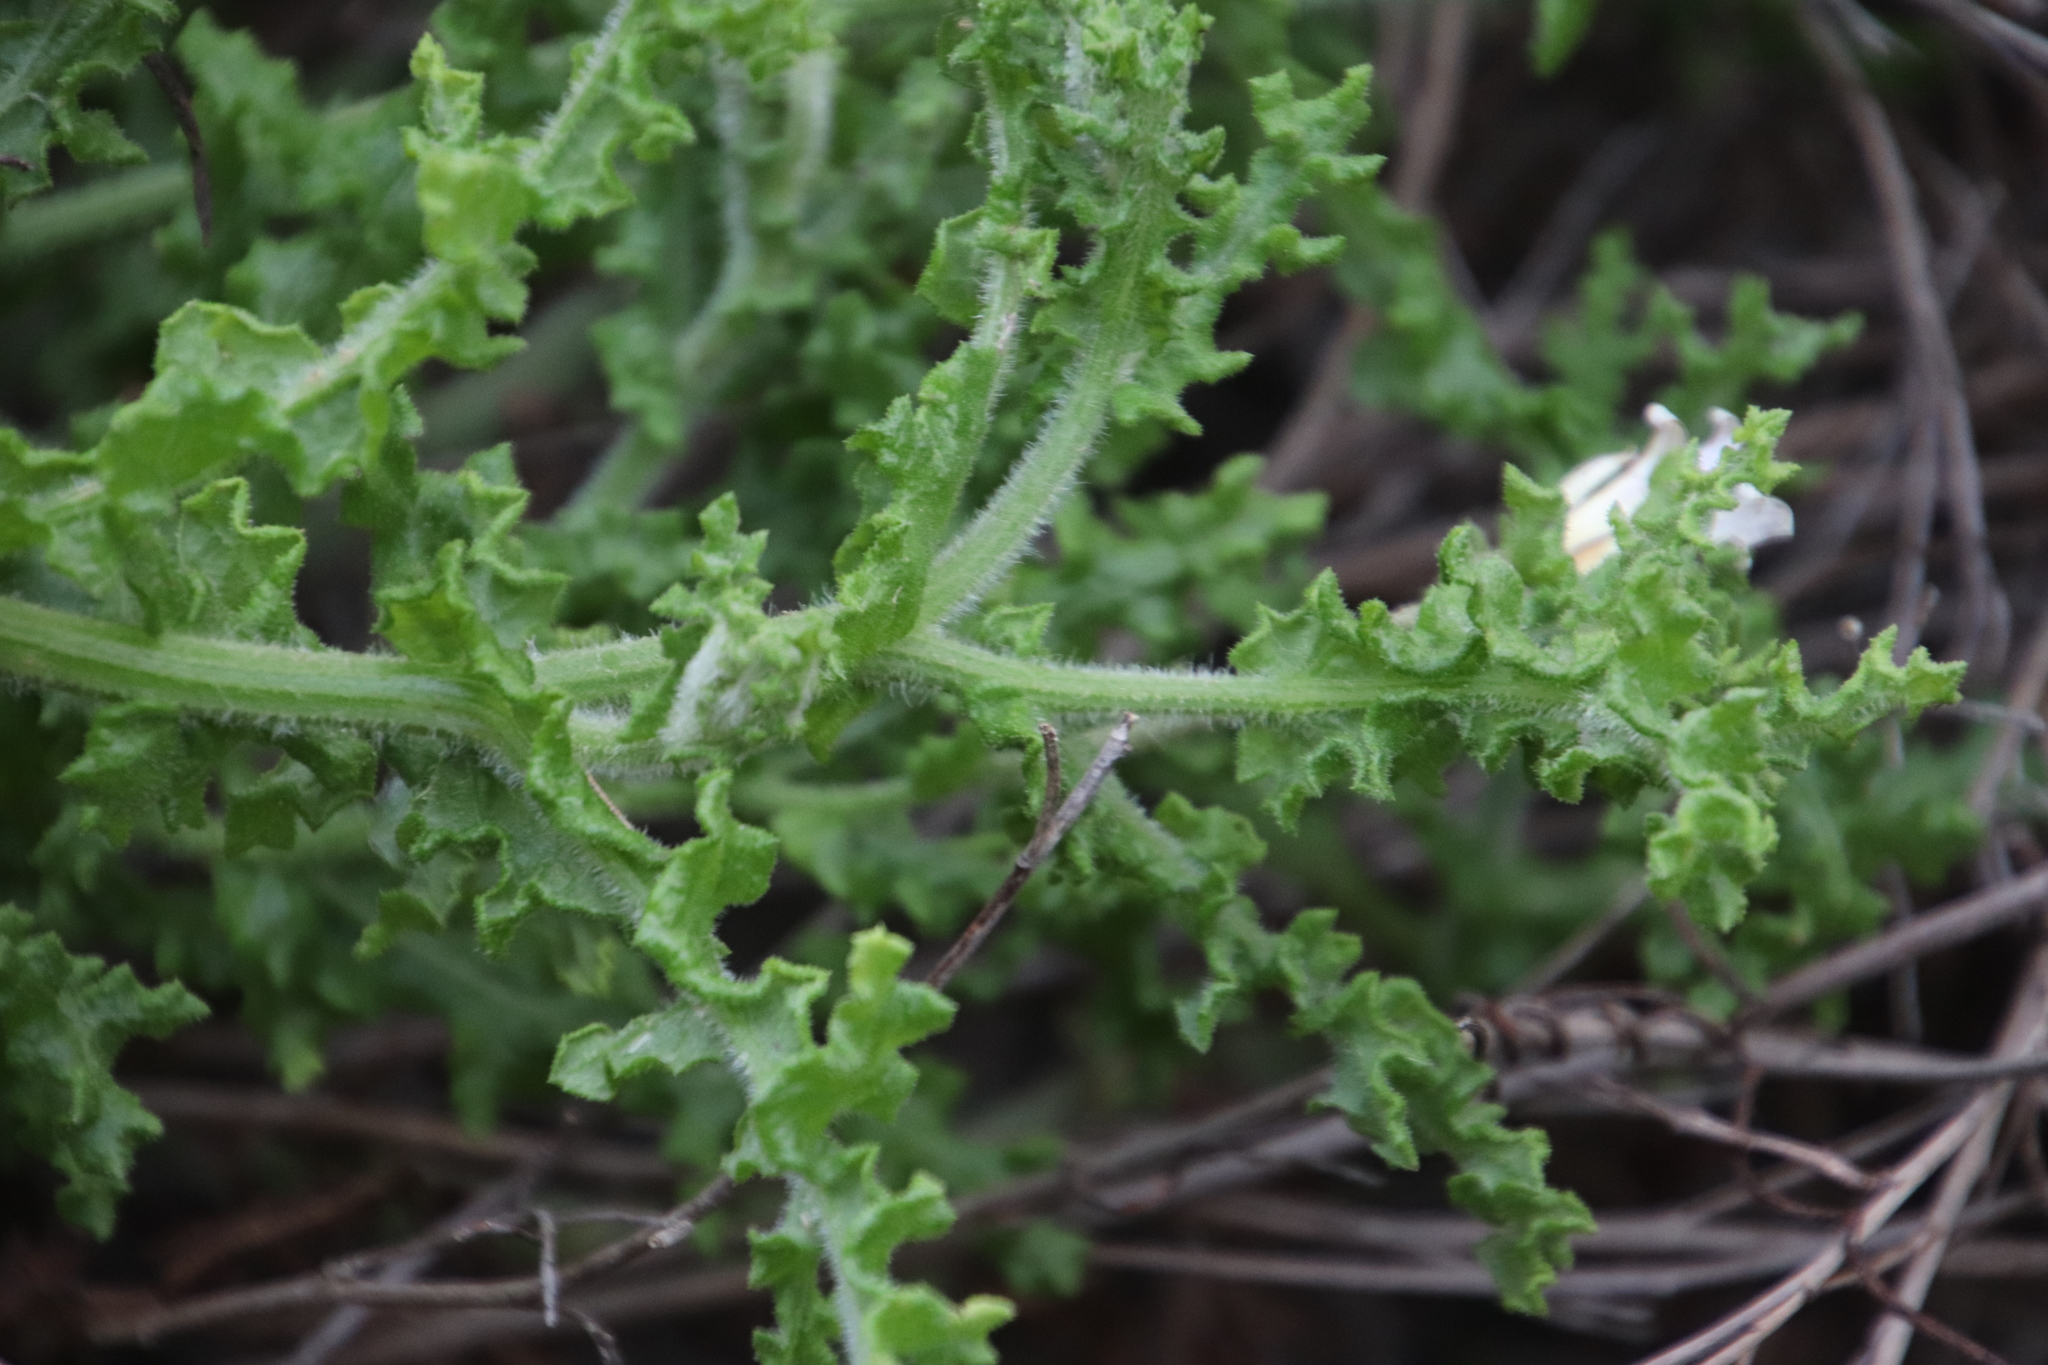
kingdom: Plantae
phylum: Tracheophyta
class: Magnoliopsida
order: Asterales
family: Asteraceae
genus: Arctotis
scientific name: Arctotis aspera
